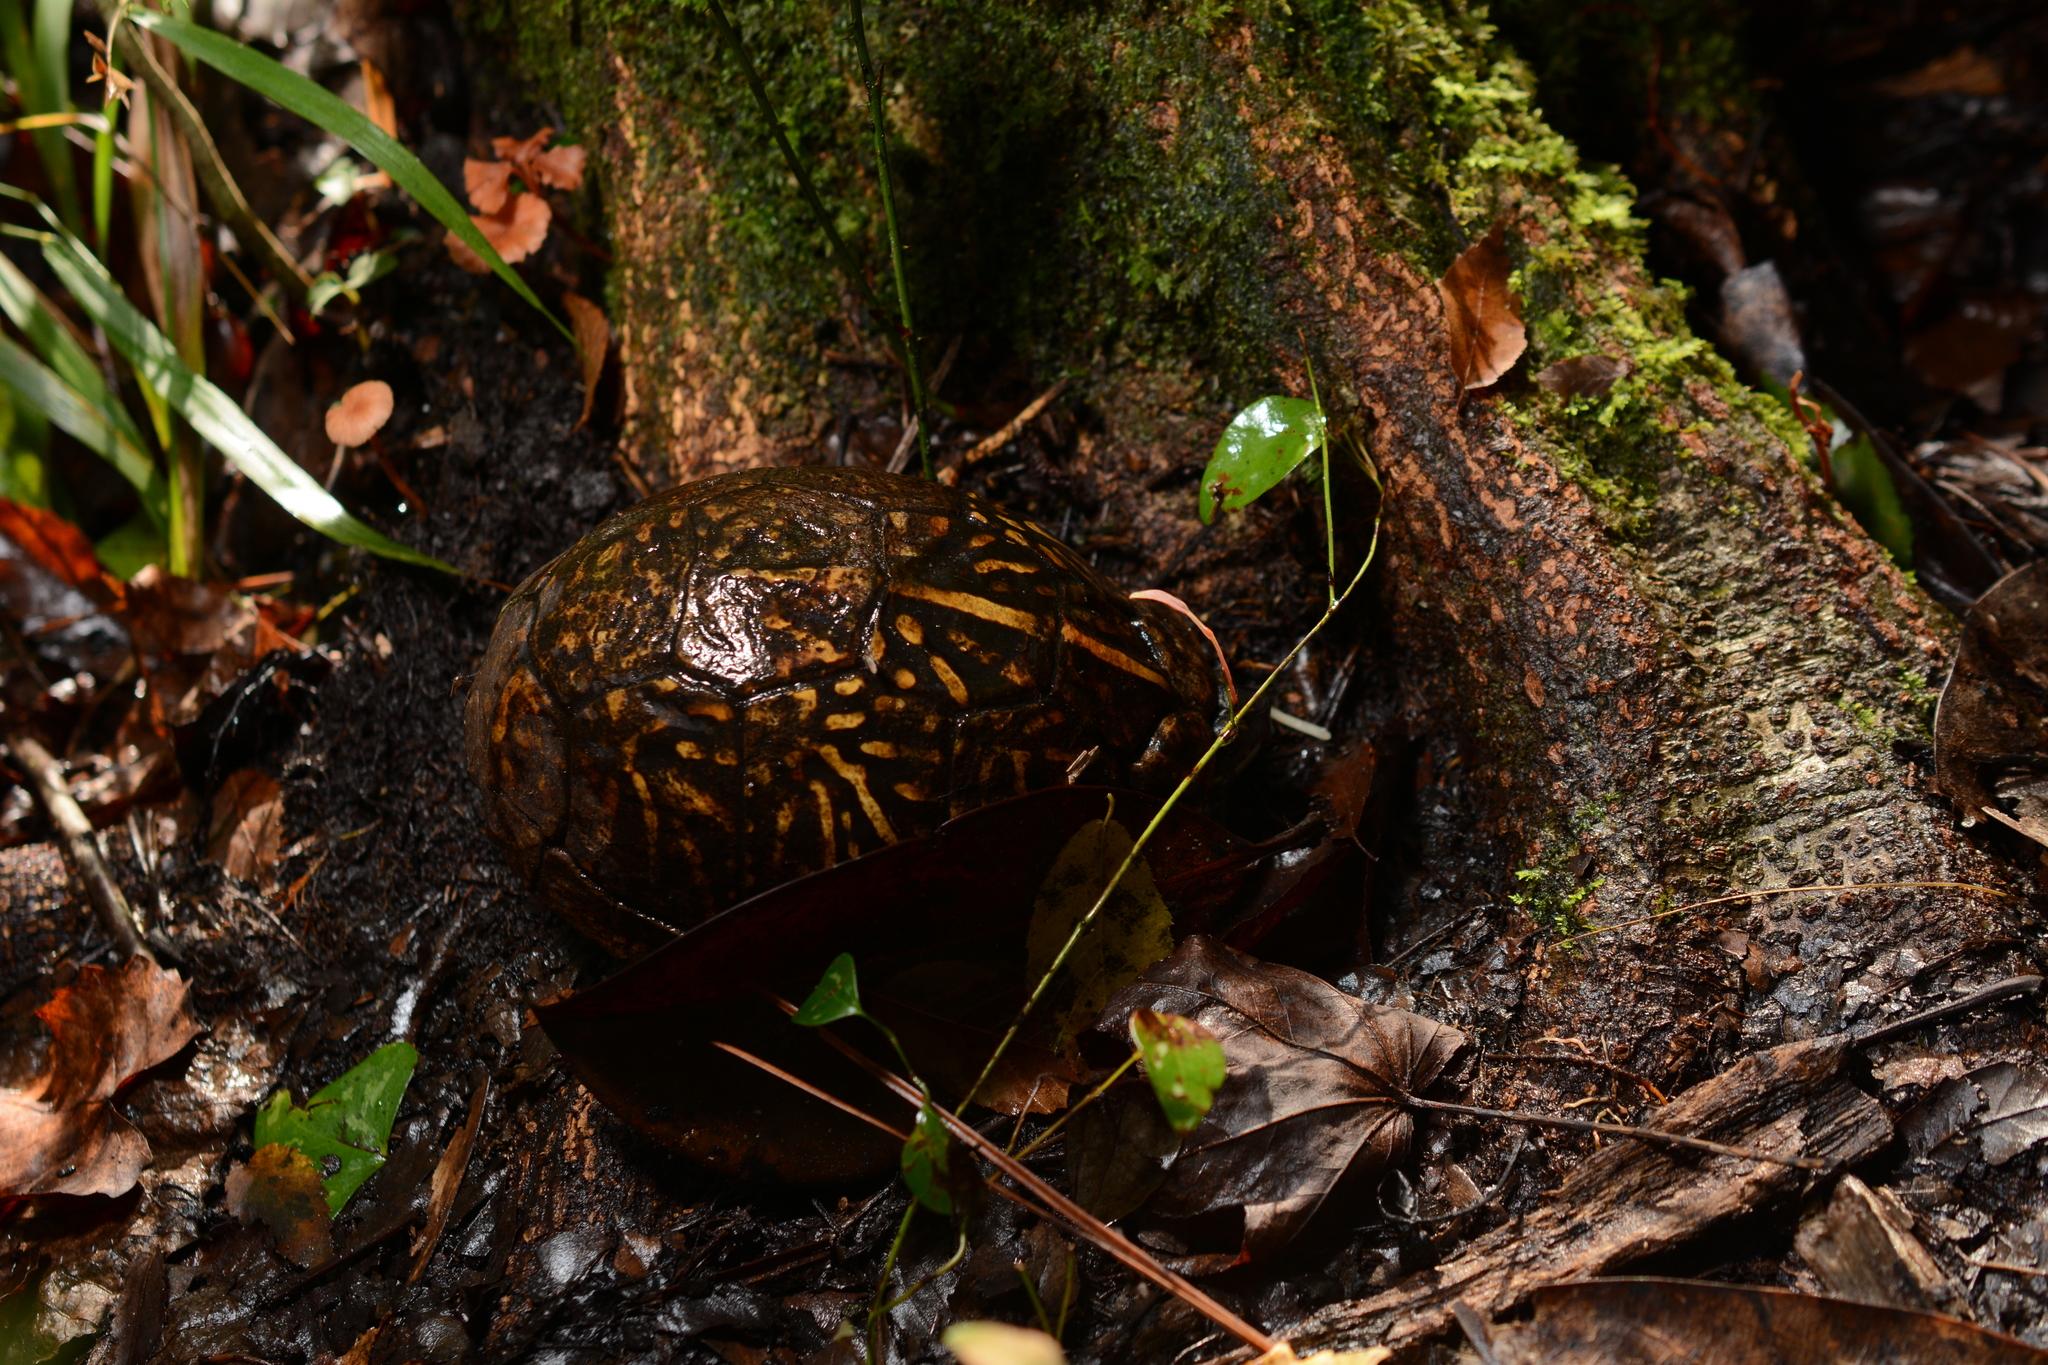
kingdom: Animalia
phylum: Chordata
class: Testudines
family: Emydidae
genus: Terrapene
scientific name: Terrapene carolina
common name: Common box turtle
